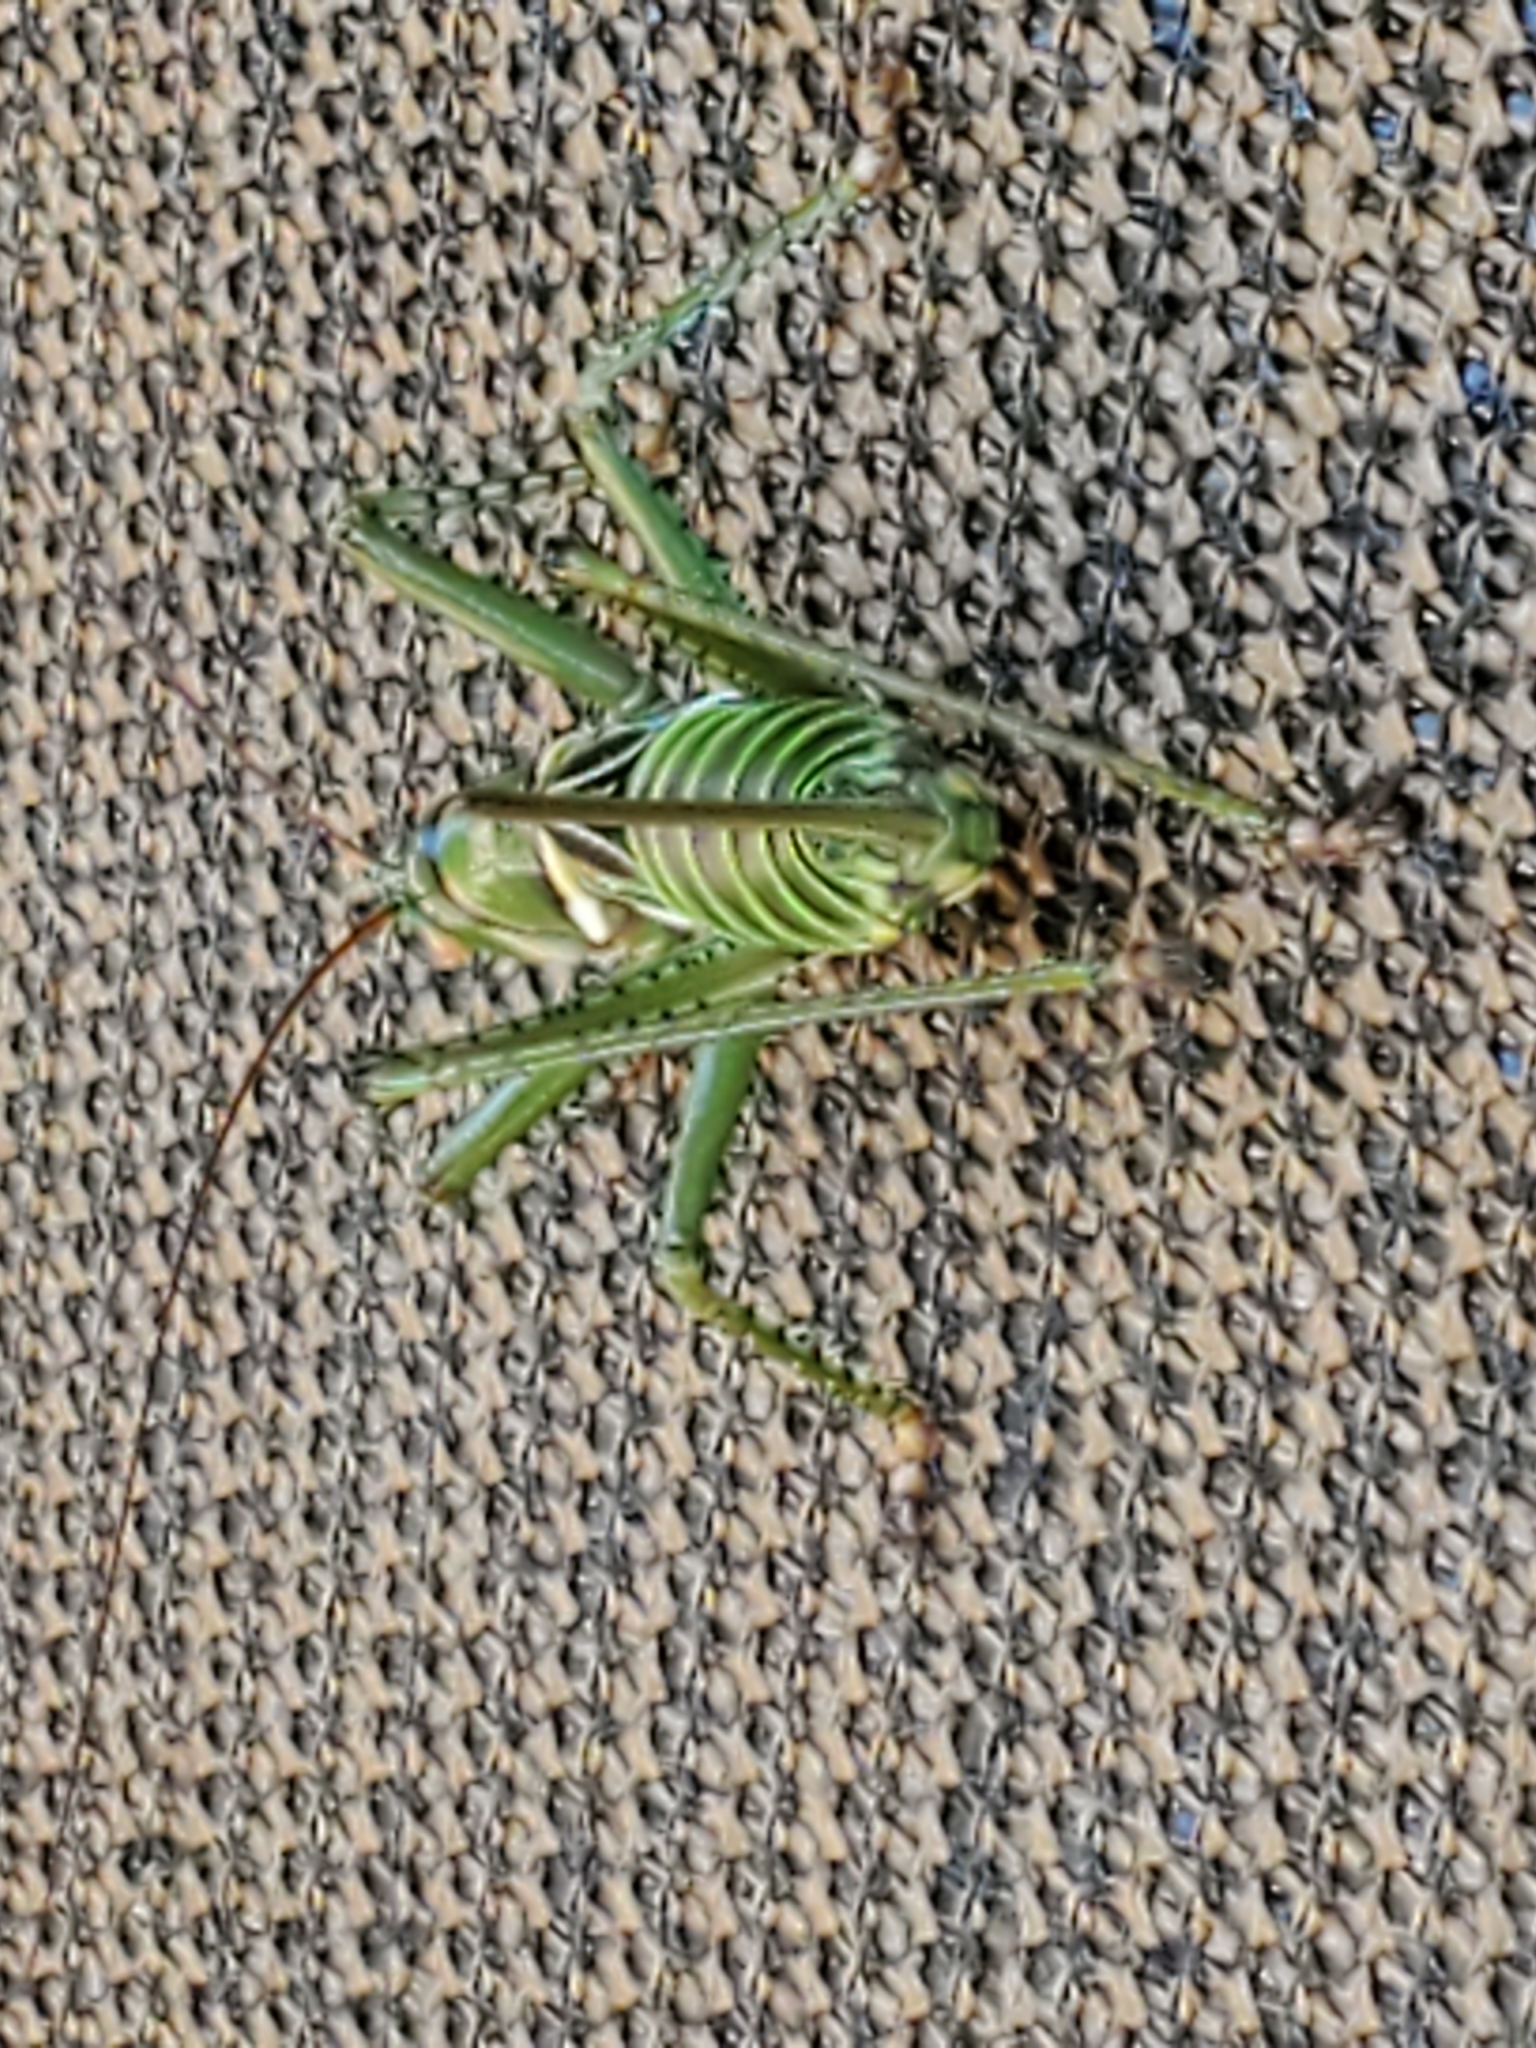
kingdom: Animalia
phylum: Arthropoda
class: Insecta
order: Orthoptera
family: Tettigoniidae
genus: Neobarrettia
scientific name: Neobarrettia spinosa
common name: Greater arid-land katydid
